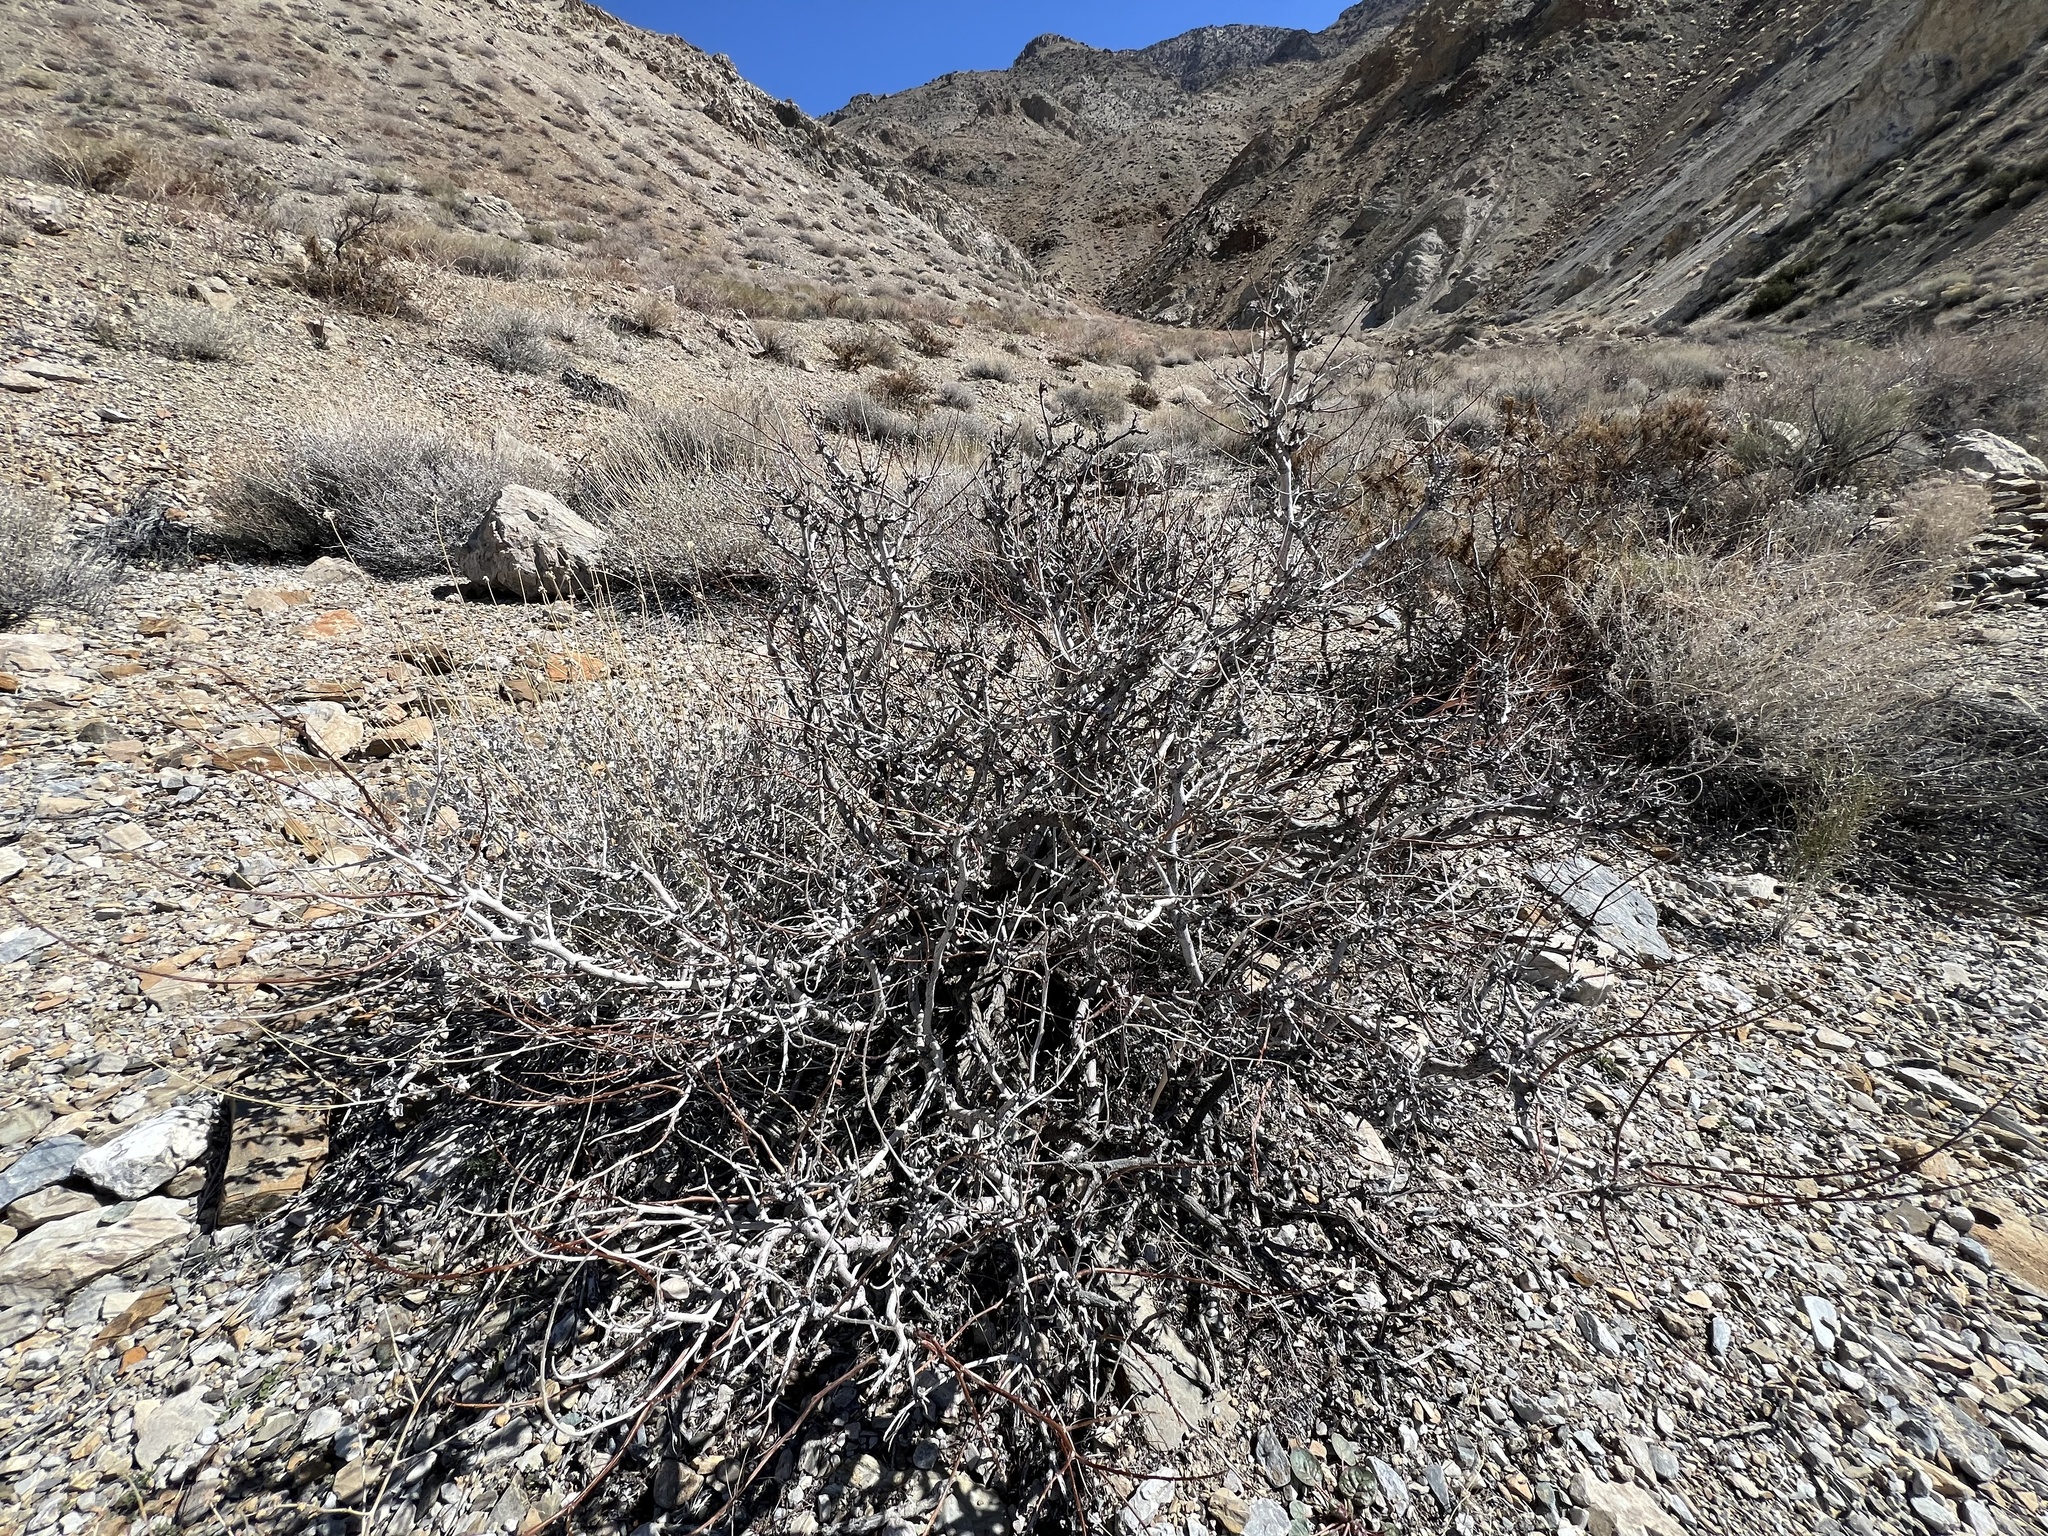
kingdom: Plantae
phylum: Tracheophyta
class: Magnoliopsida
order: Fabales
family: Fabaceae
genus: Psorothamnus
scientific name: Psorothamnus arborescens
